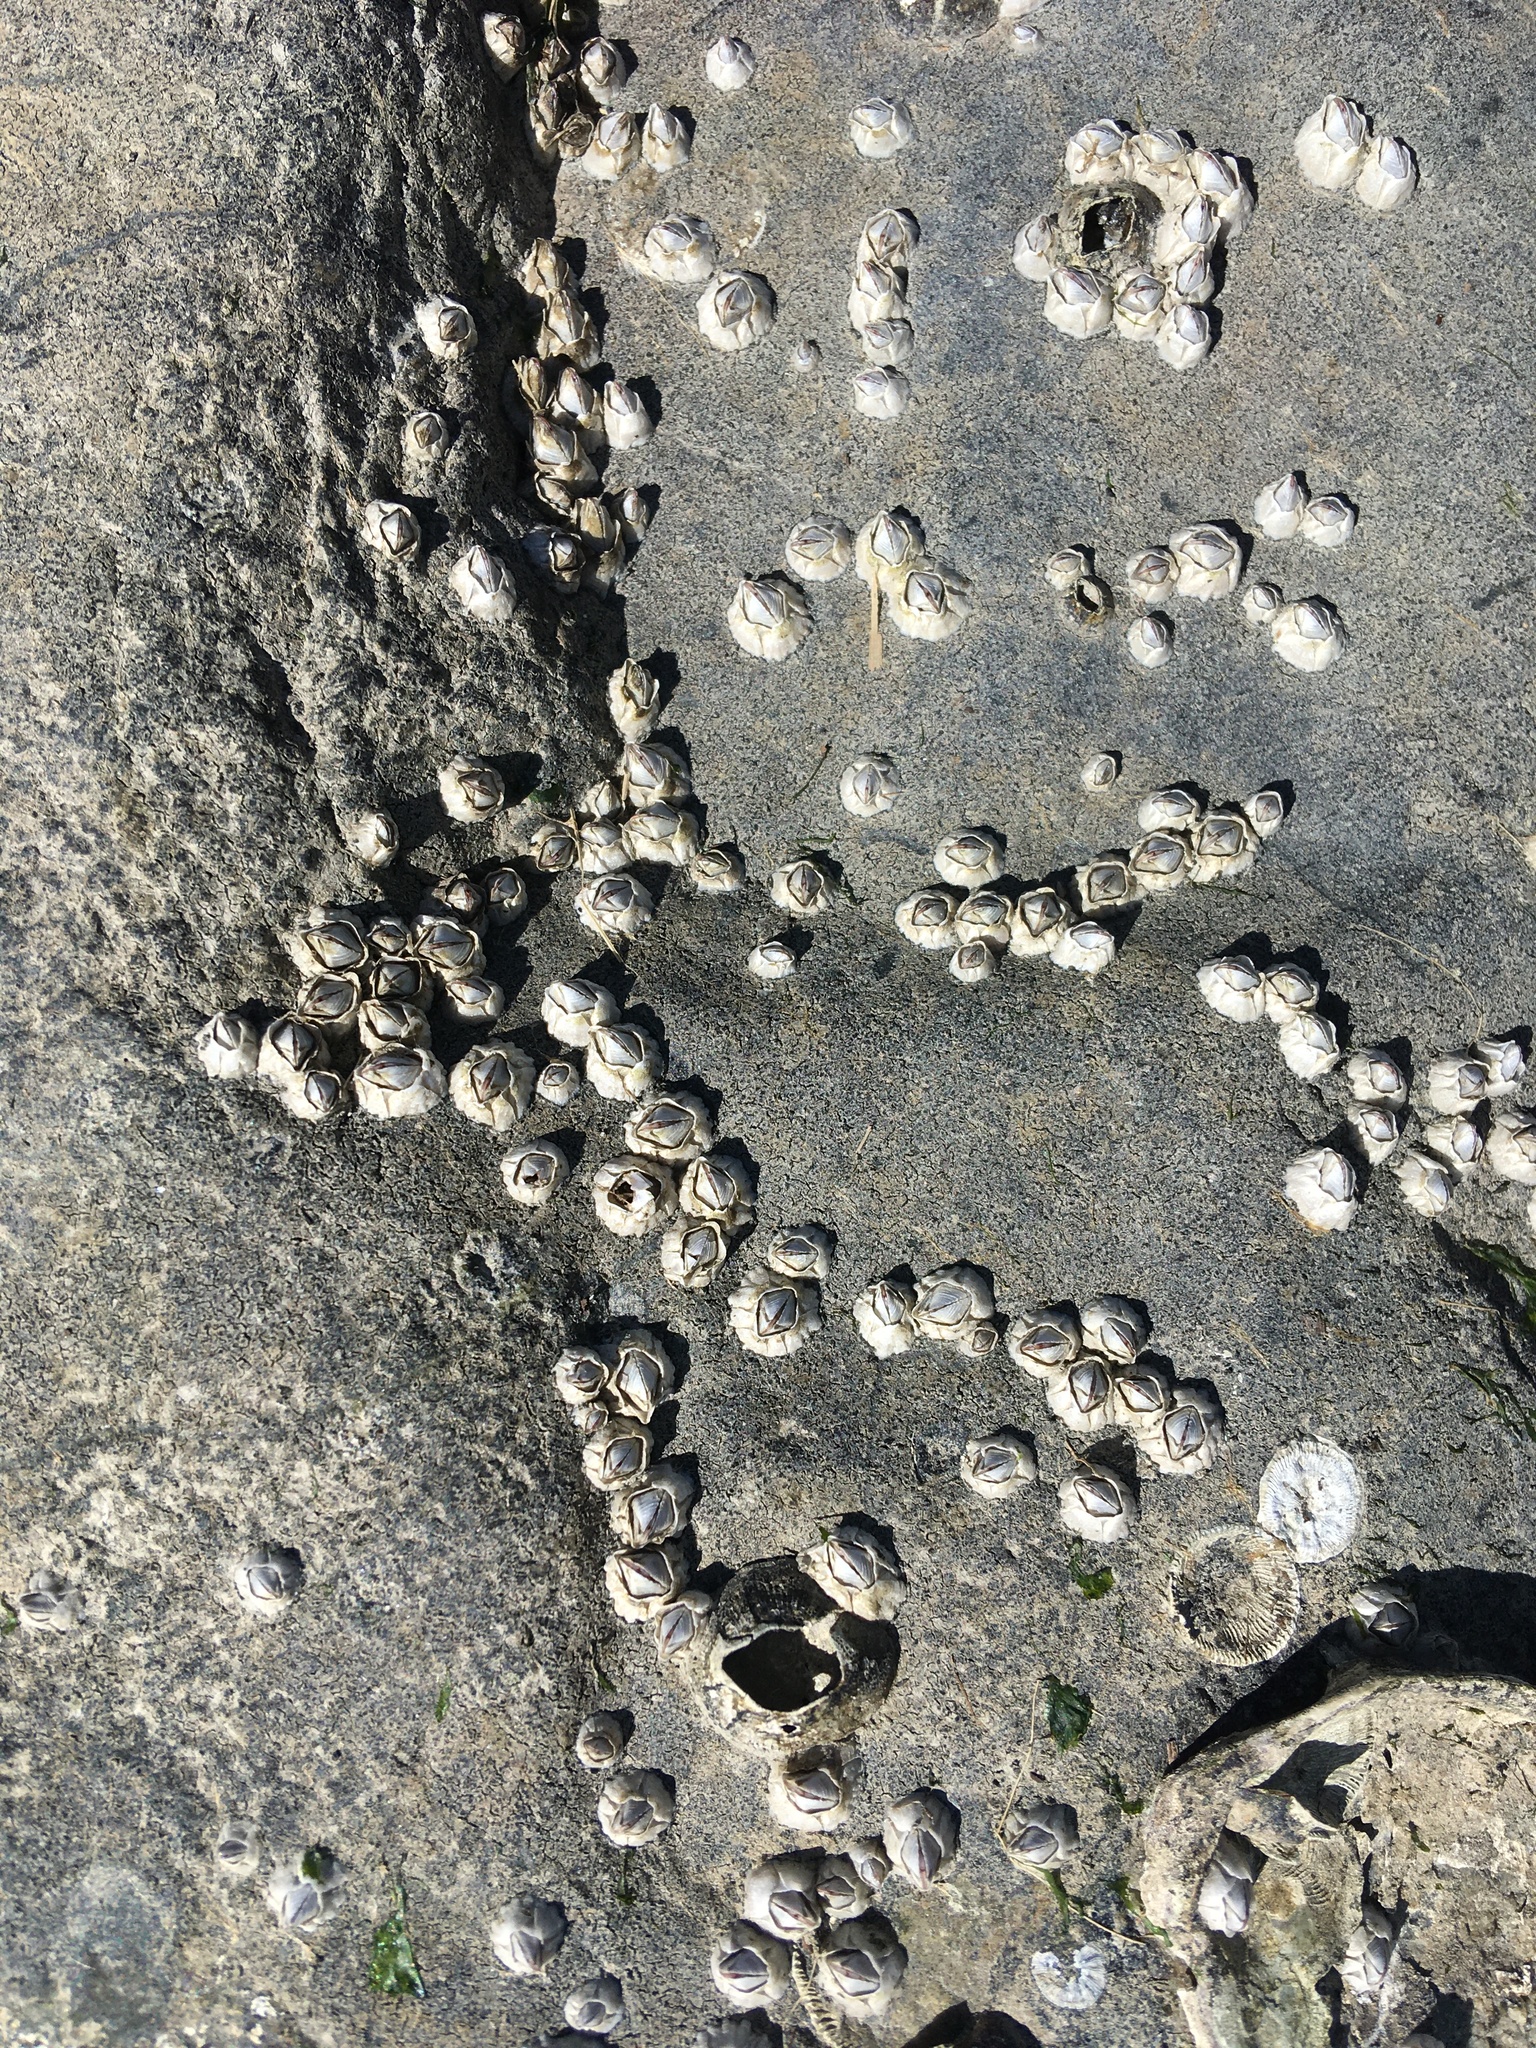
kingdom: Animalia
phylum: Arthropoda
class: Maxillopoda
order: Sessilia
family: Archaeobalanidae
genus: Semibalanus
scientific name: Semibalanus balanoides
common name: Acorn barnacle
